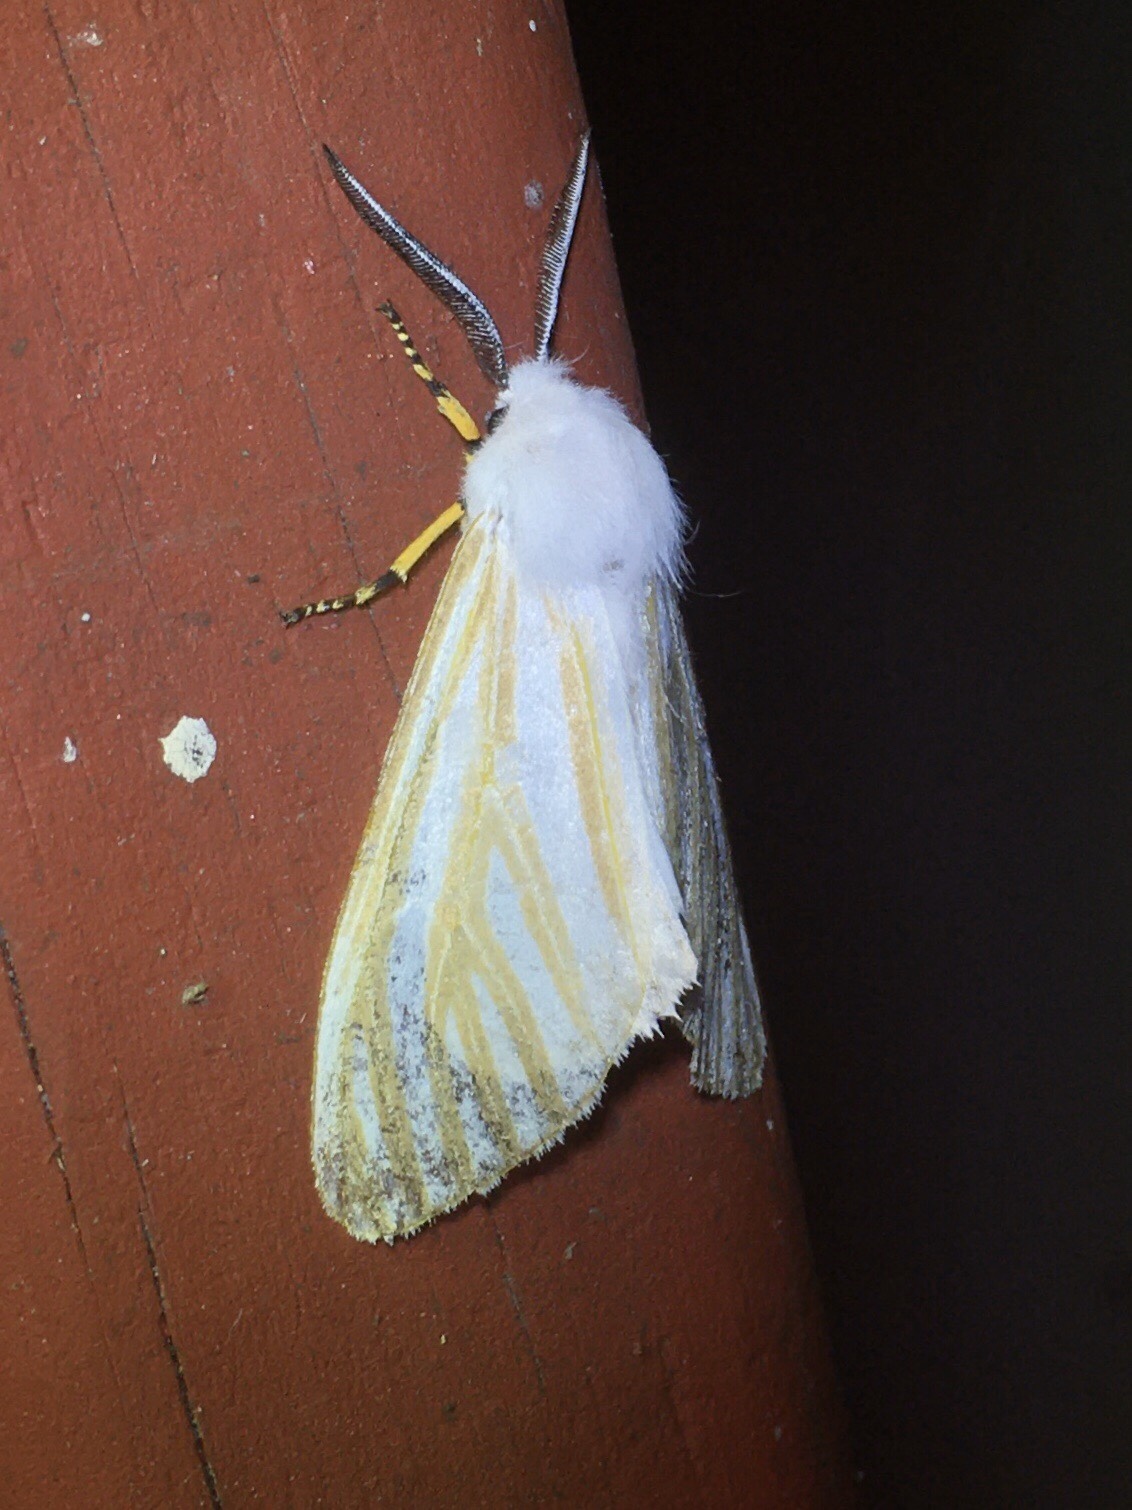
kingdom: Animalia
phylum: Arthropoda
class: Insecta
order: Lepidoptera
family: Erebidae
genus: Seirarctia
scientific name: Seirarctia echo
